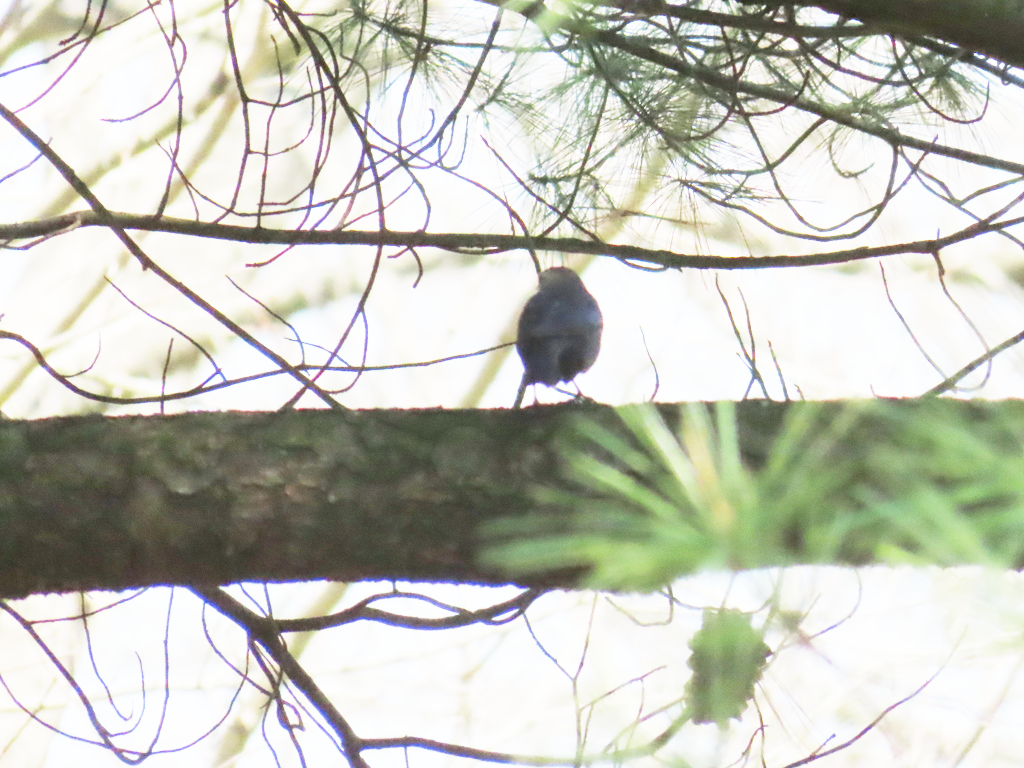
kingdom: Animalia
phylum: Chordata
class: Aves
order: Passeriformes
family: Icteridae
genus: Molothrus
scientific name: Molothrus ater
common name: Brown-headed cowbird
